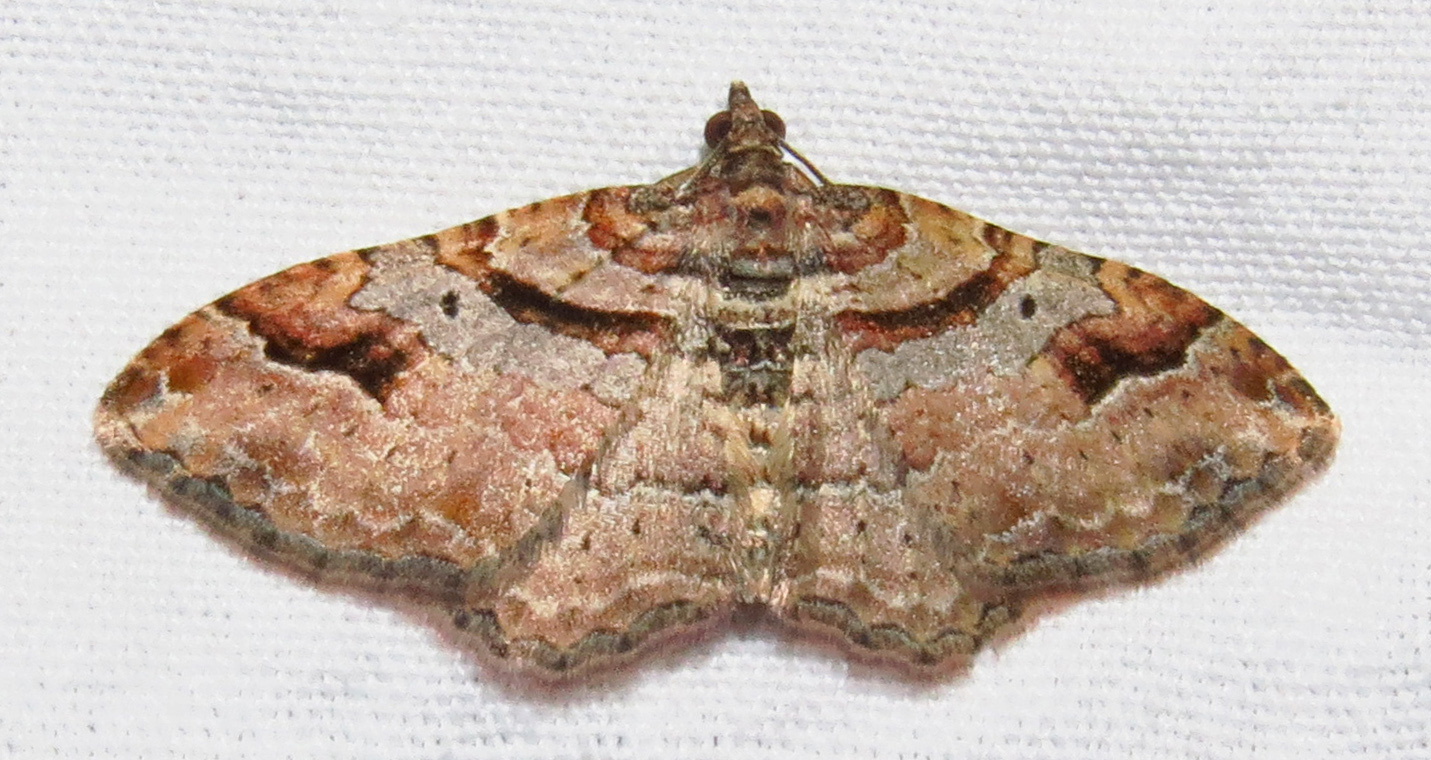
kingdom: Animalia
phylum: Arthropoda
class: Insecta
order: Lepidoptera
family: Geometridae
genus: Costaconvexa
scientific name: Costaconvexa centrostrigaria
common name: Bent-line carpet
